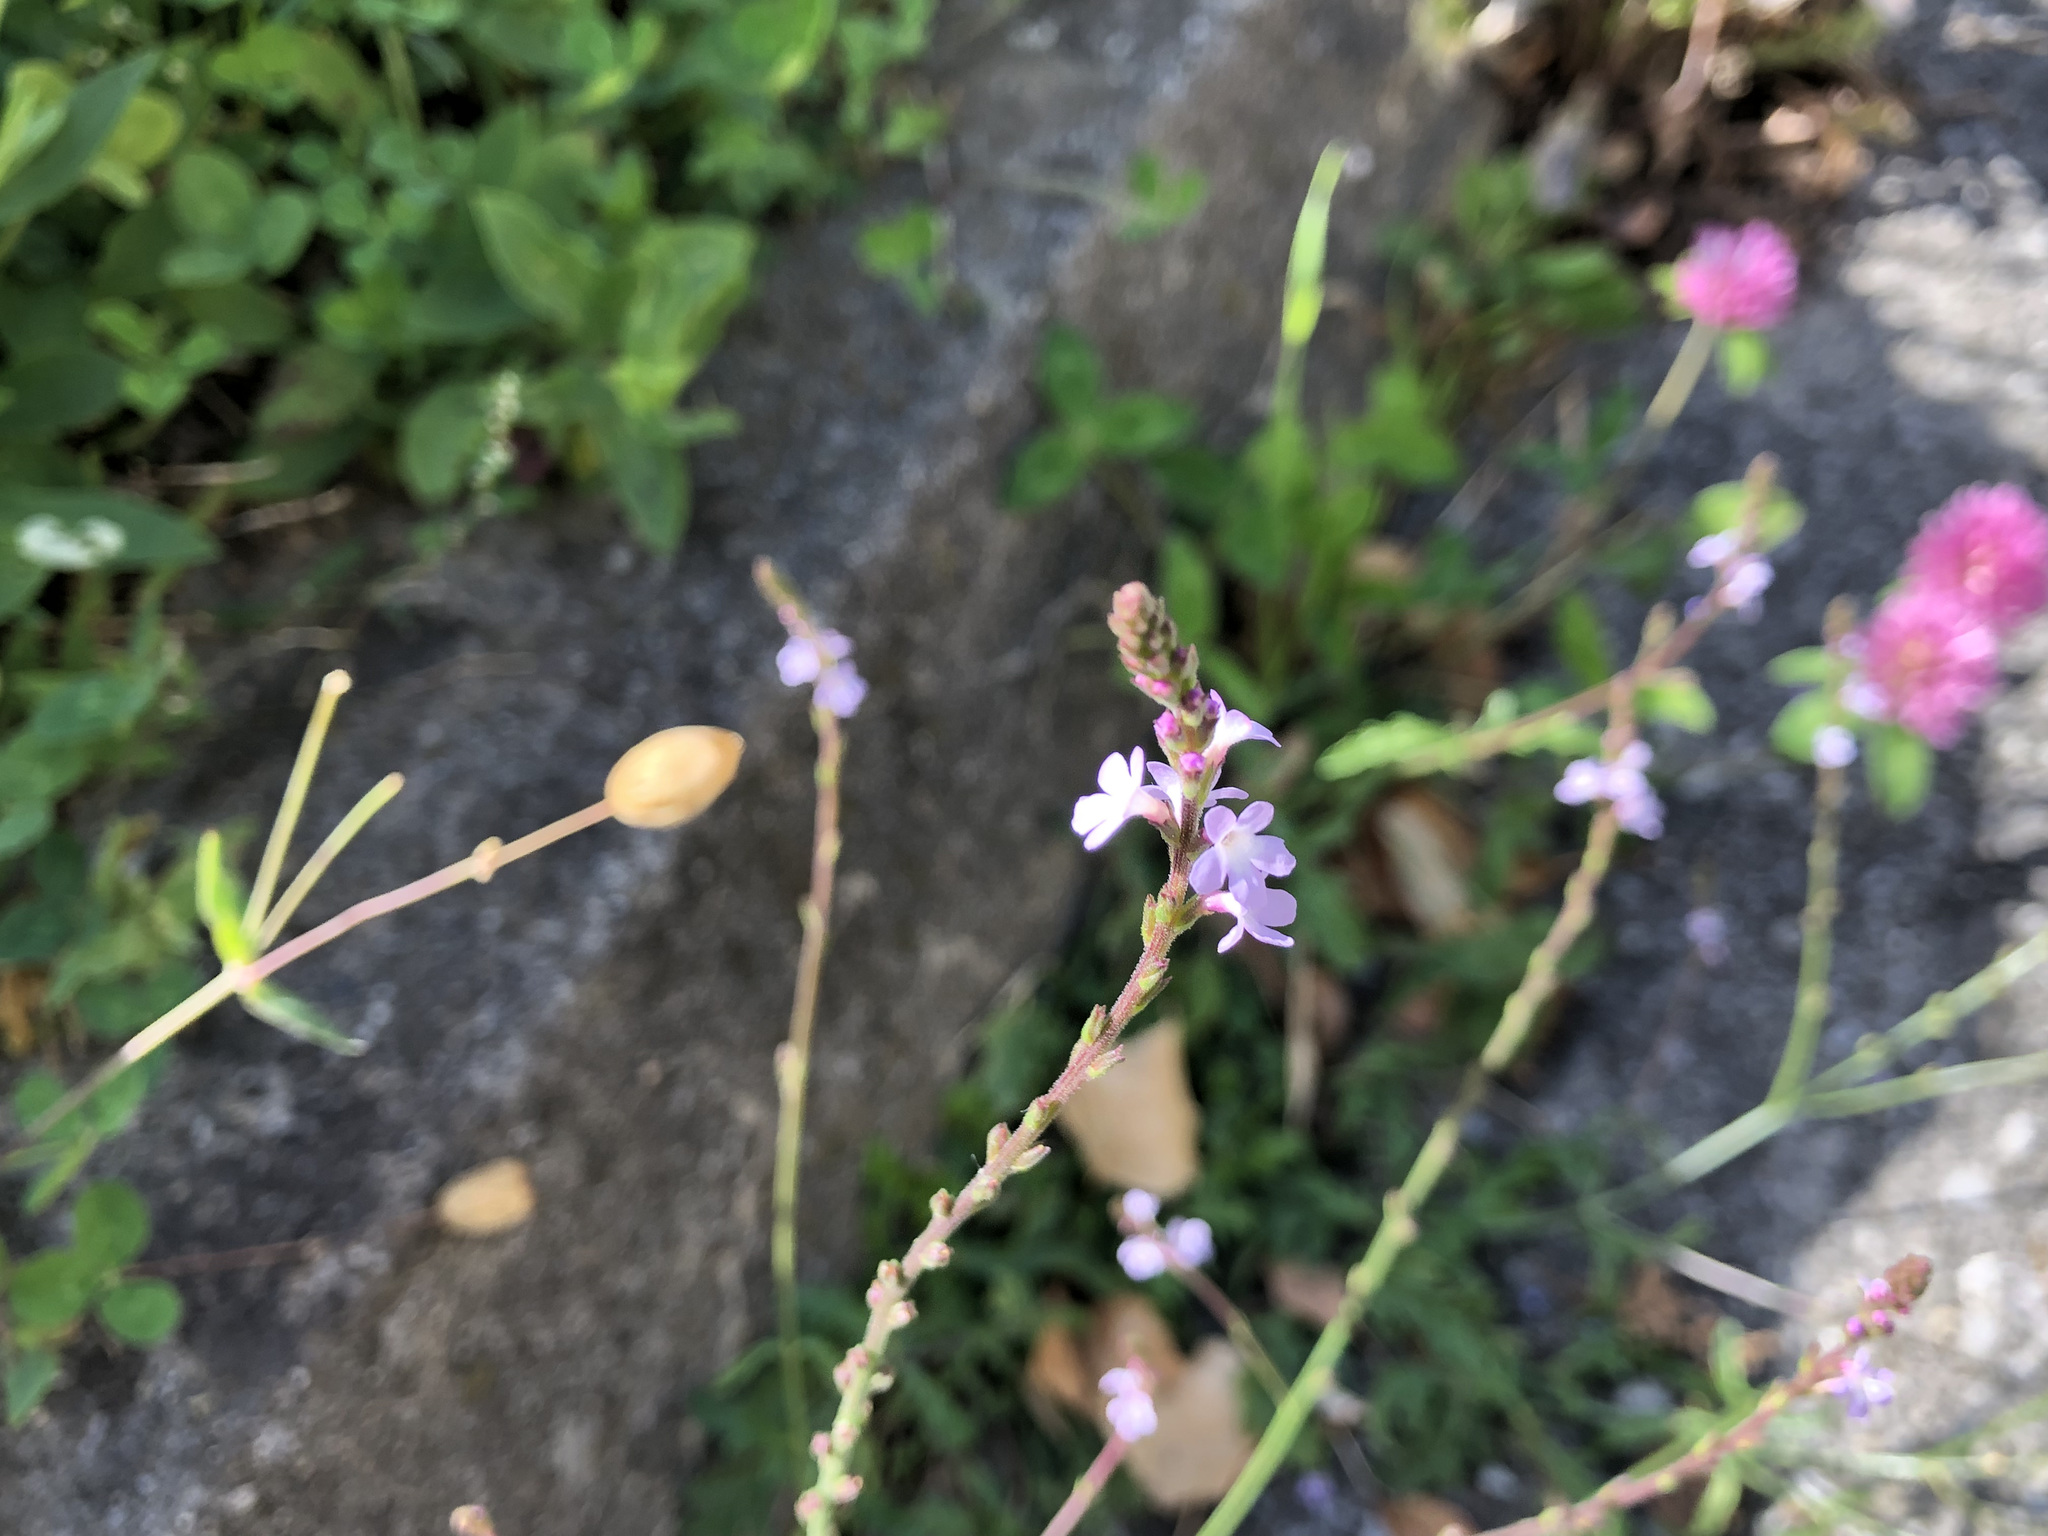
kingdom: Plantae
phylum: Tracheophyta
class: Magnoliopsida
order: Lamiales
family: Verbenaceae
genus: Verbena
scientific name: Verbena officinalis
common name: Vervain
